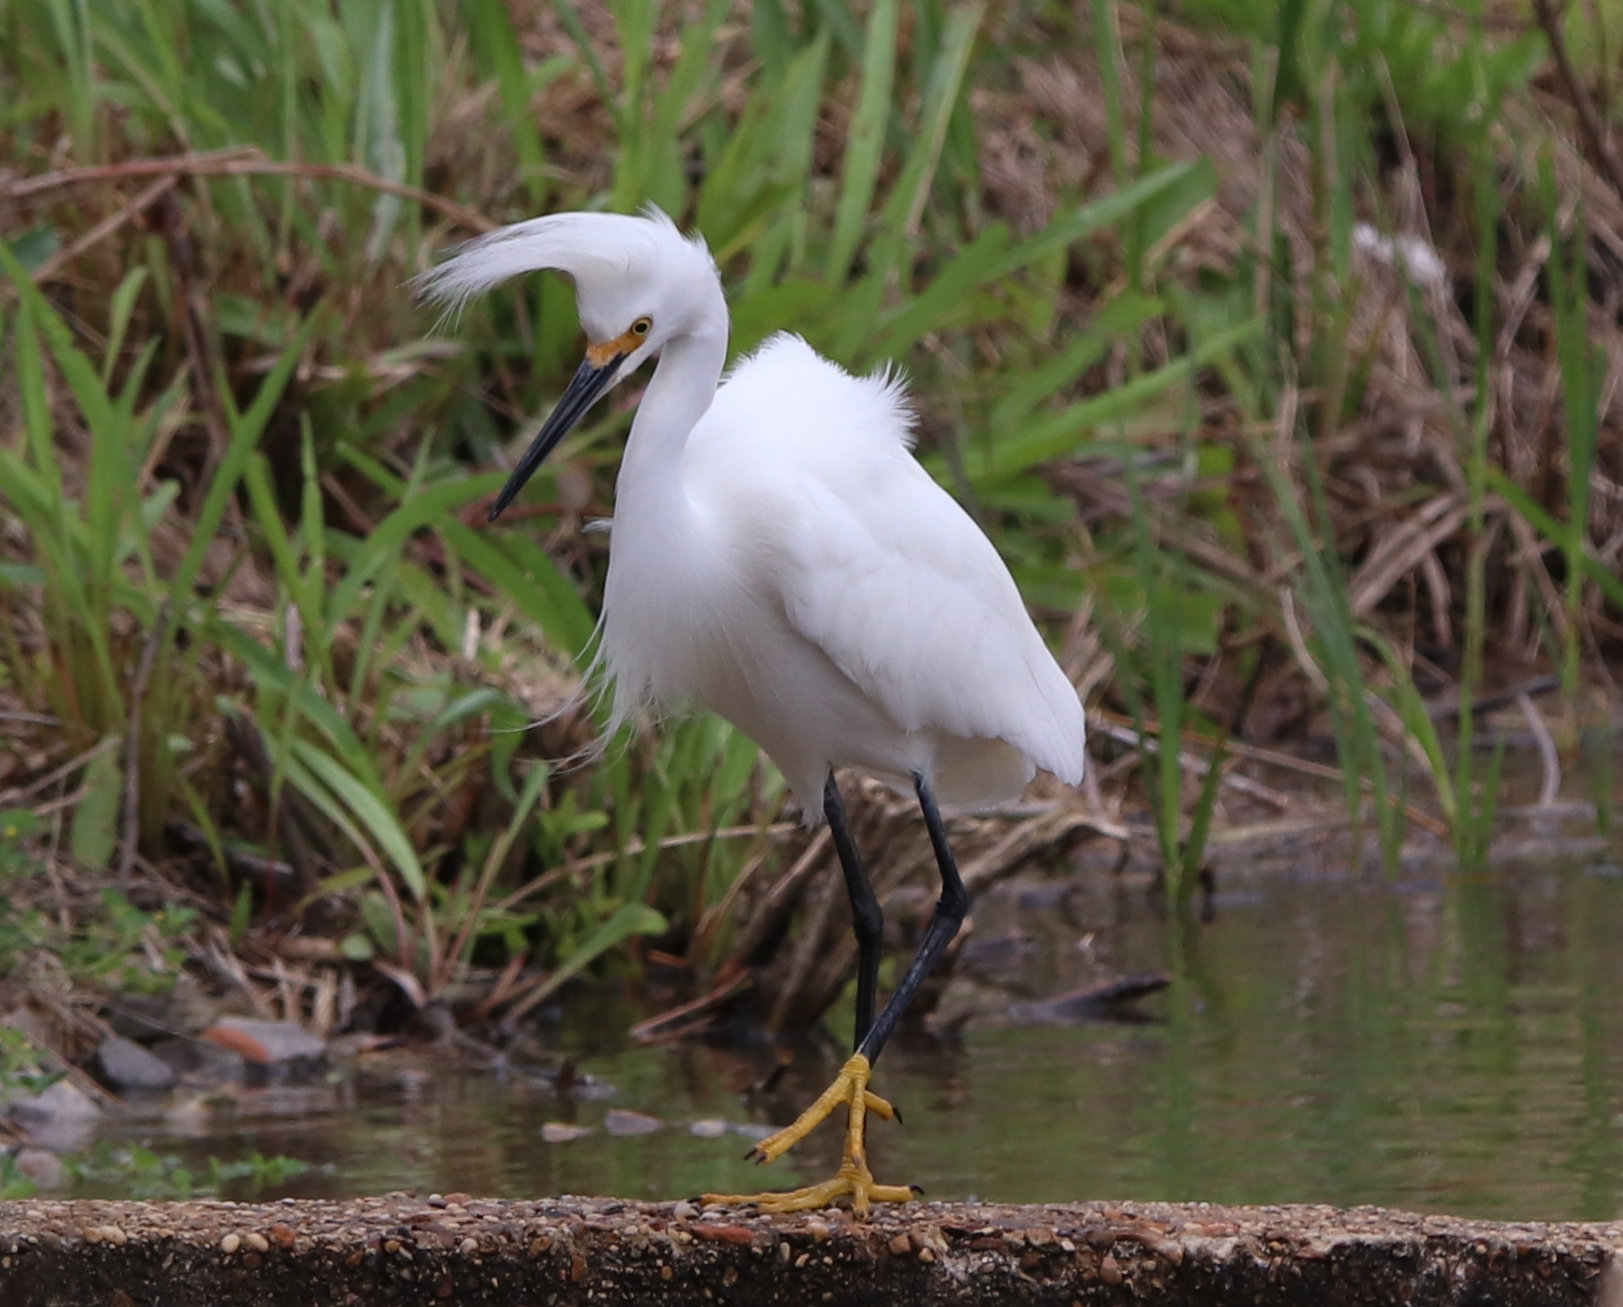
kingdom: Animalia
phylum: Chordata
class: Aves
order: Pelecaniformes
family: Ardeidae
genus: Egretta
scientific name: Egretta thula
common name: Snowy egret
